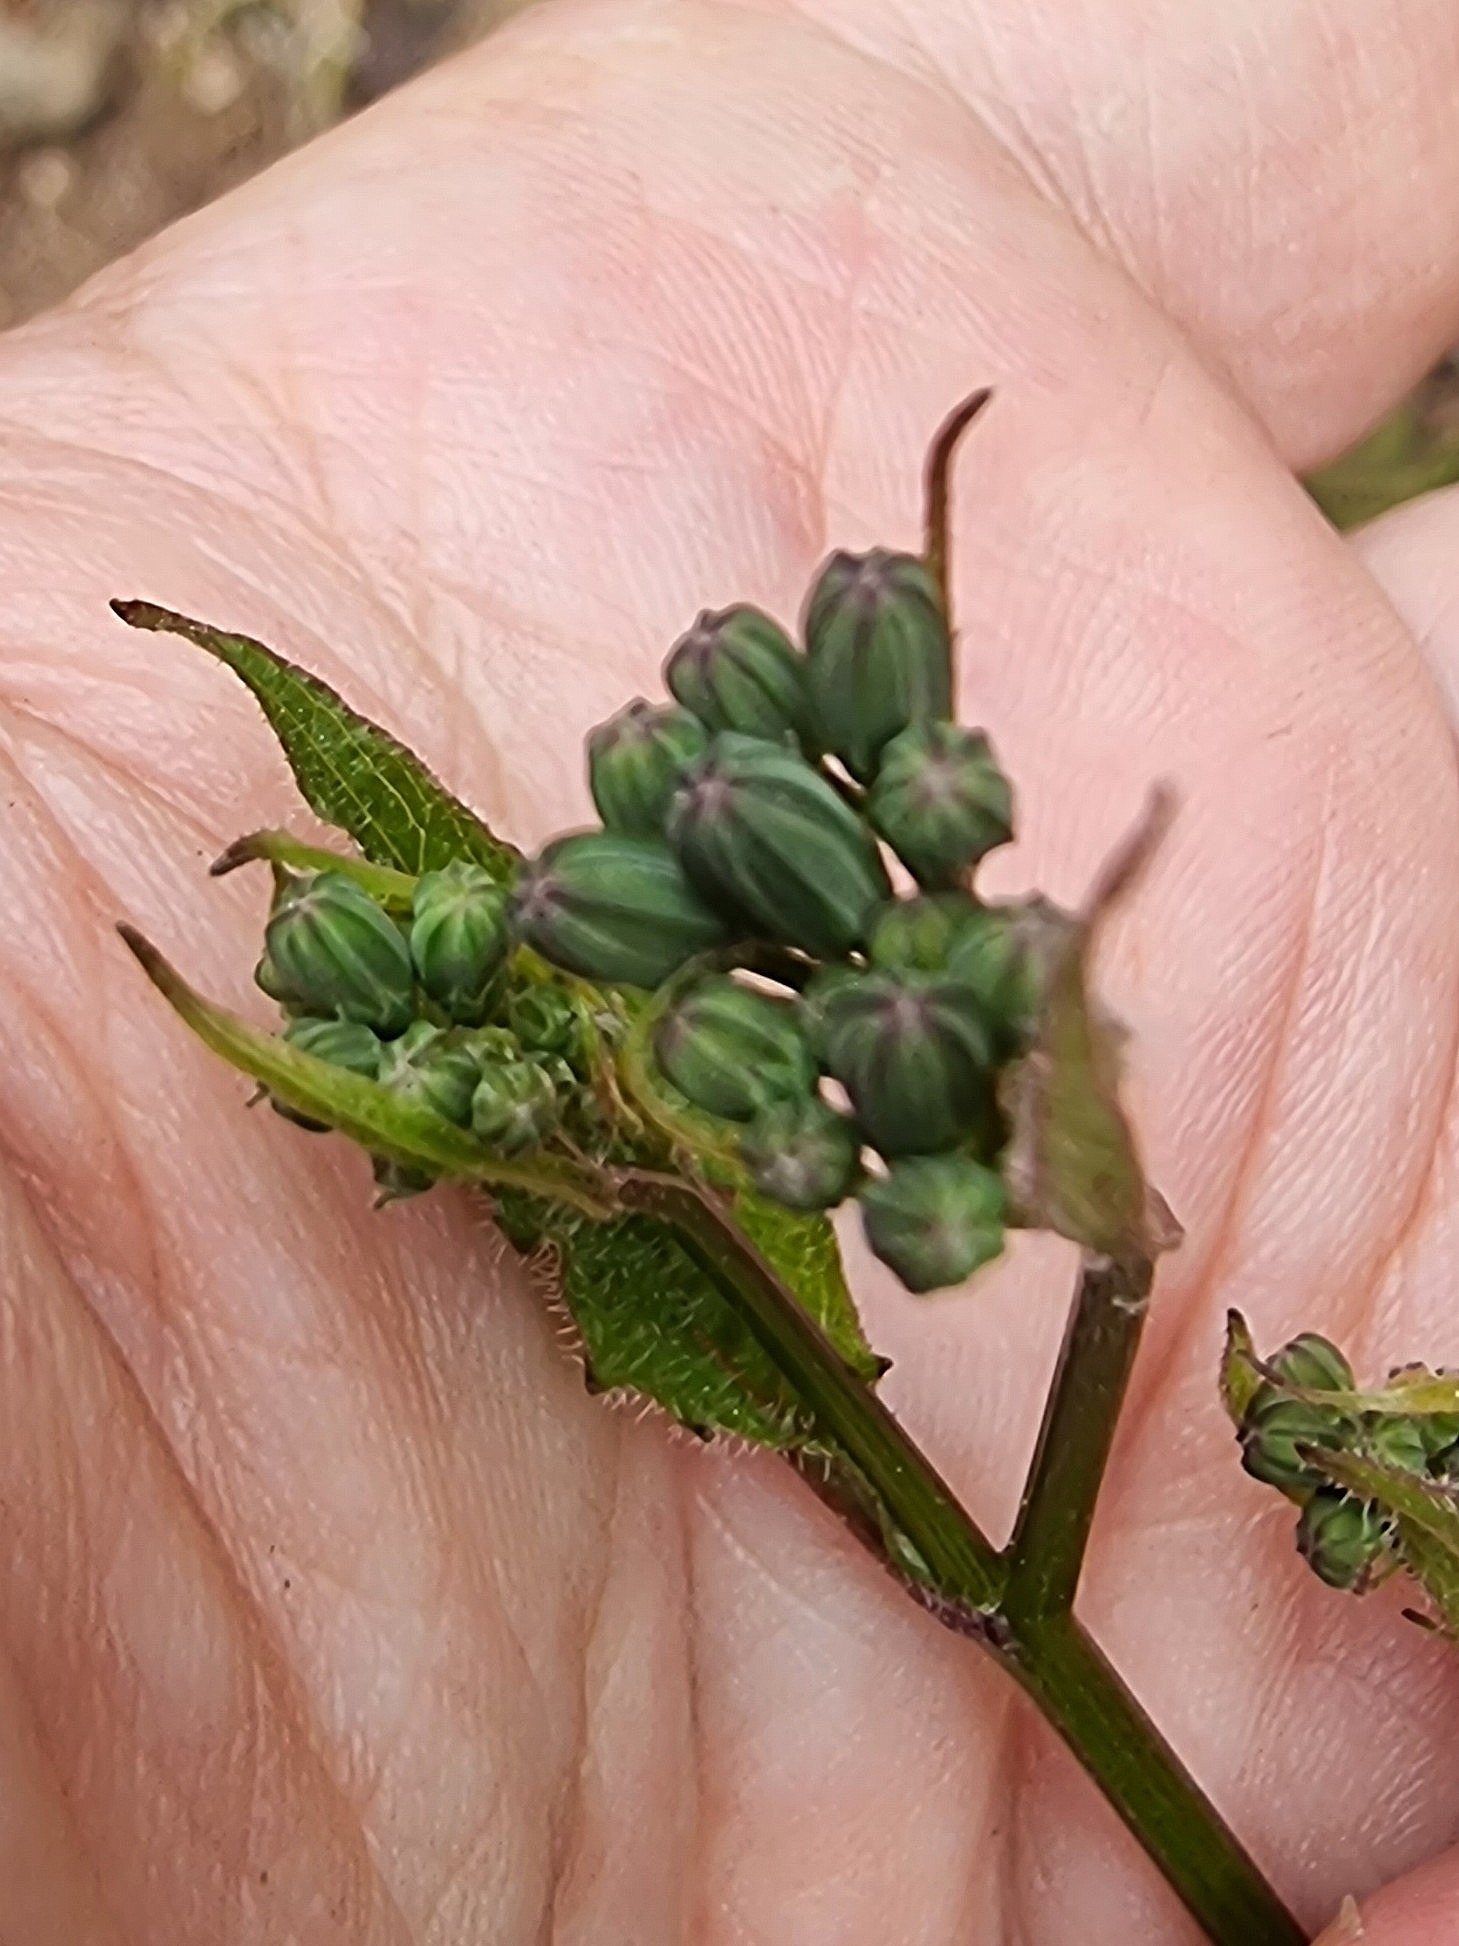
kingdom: Plantae
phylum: Tracheophyta
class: Magnoliopsida
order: Asterales
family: Asteraceae
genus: Lapsana
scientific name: Lapsana communis
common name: Nipplewort
